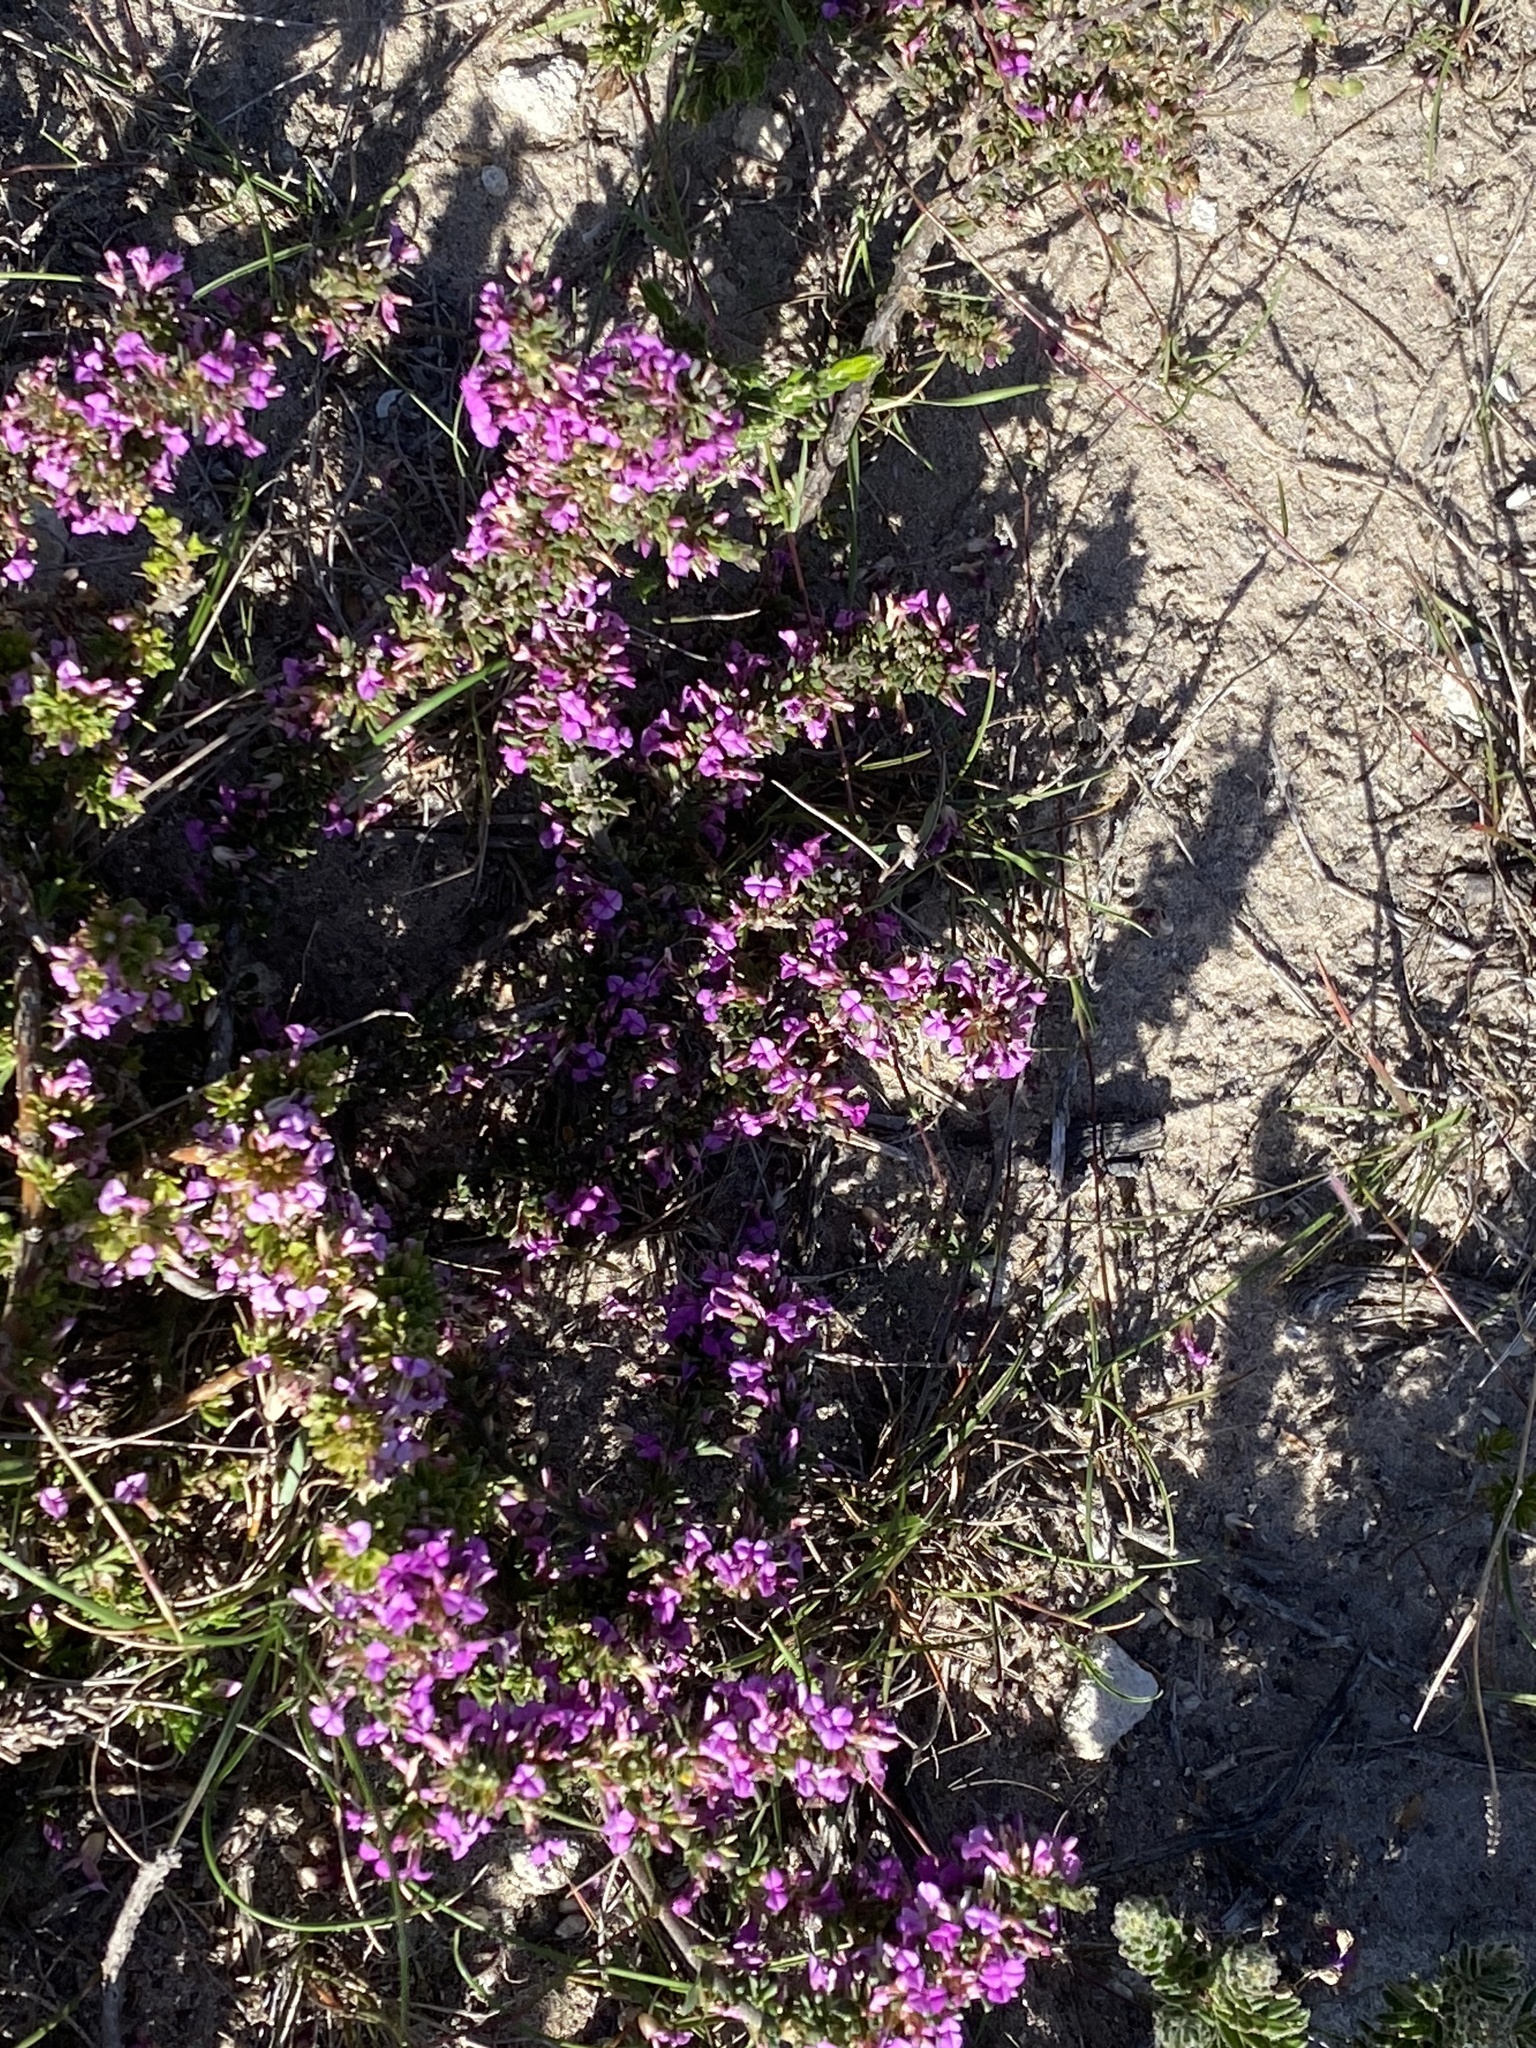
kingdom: Plantae
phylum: Tracheophyta
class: Magnoliopsida
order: Fabales
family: Polygalaceae
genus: Muraltia
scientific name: Muraltia barkerae
